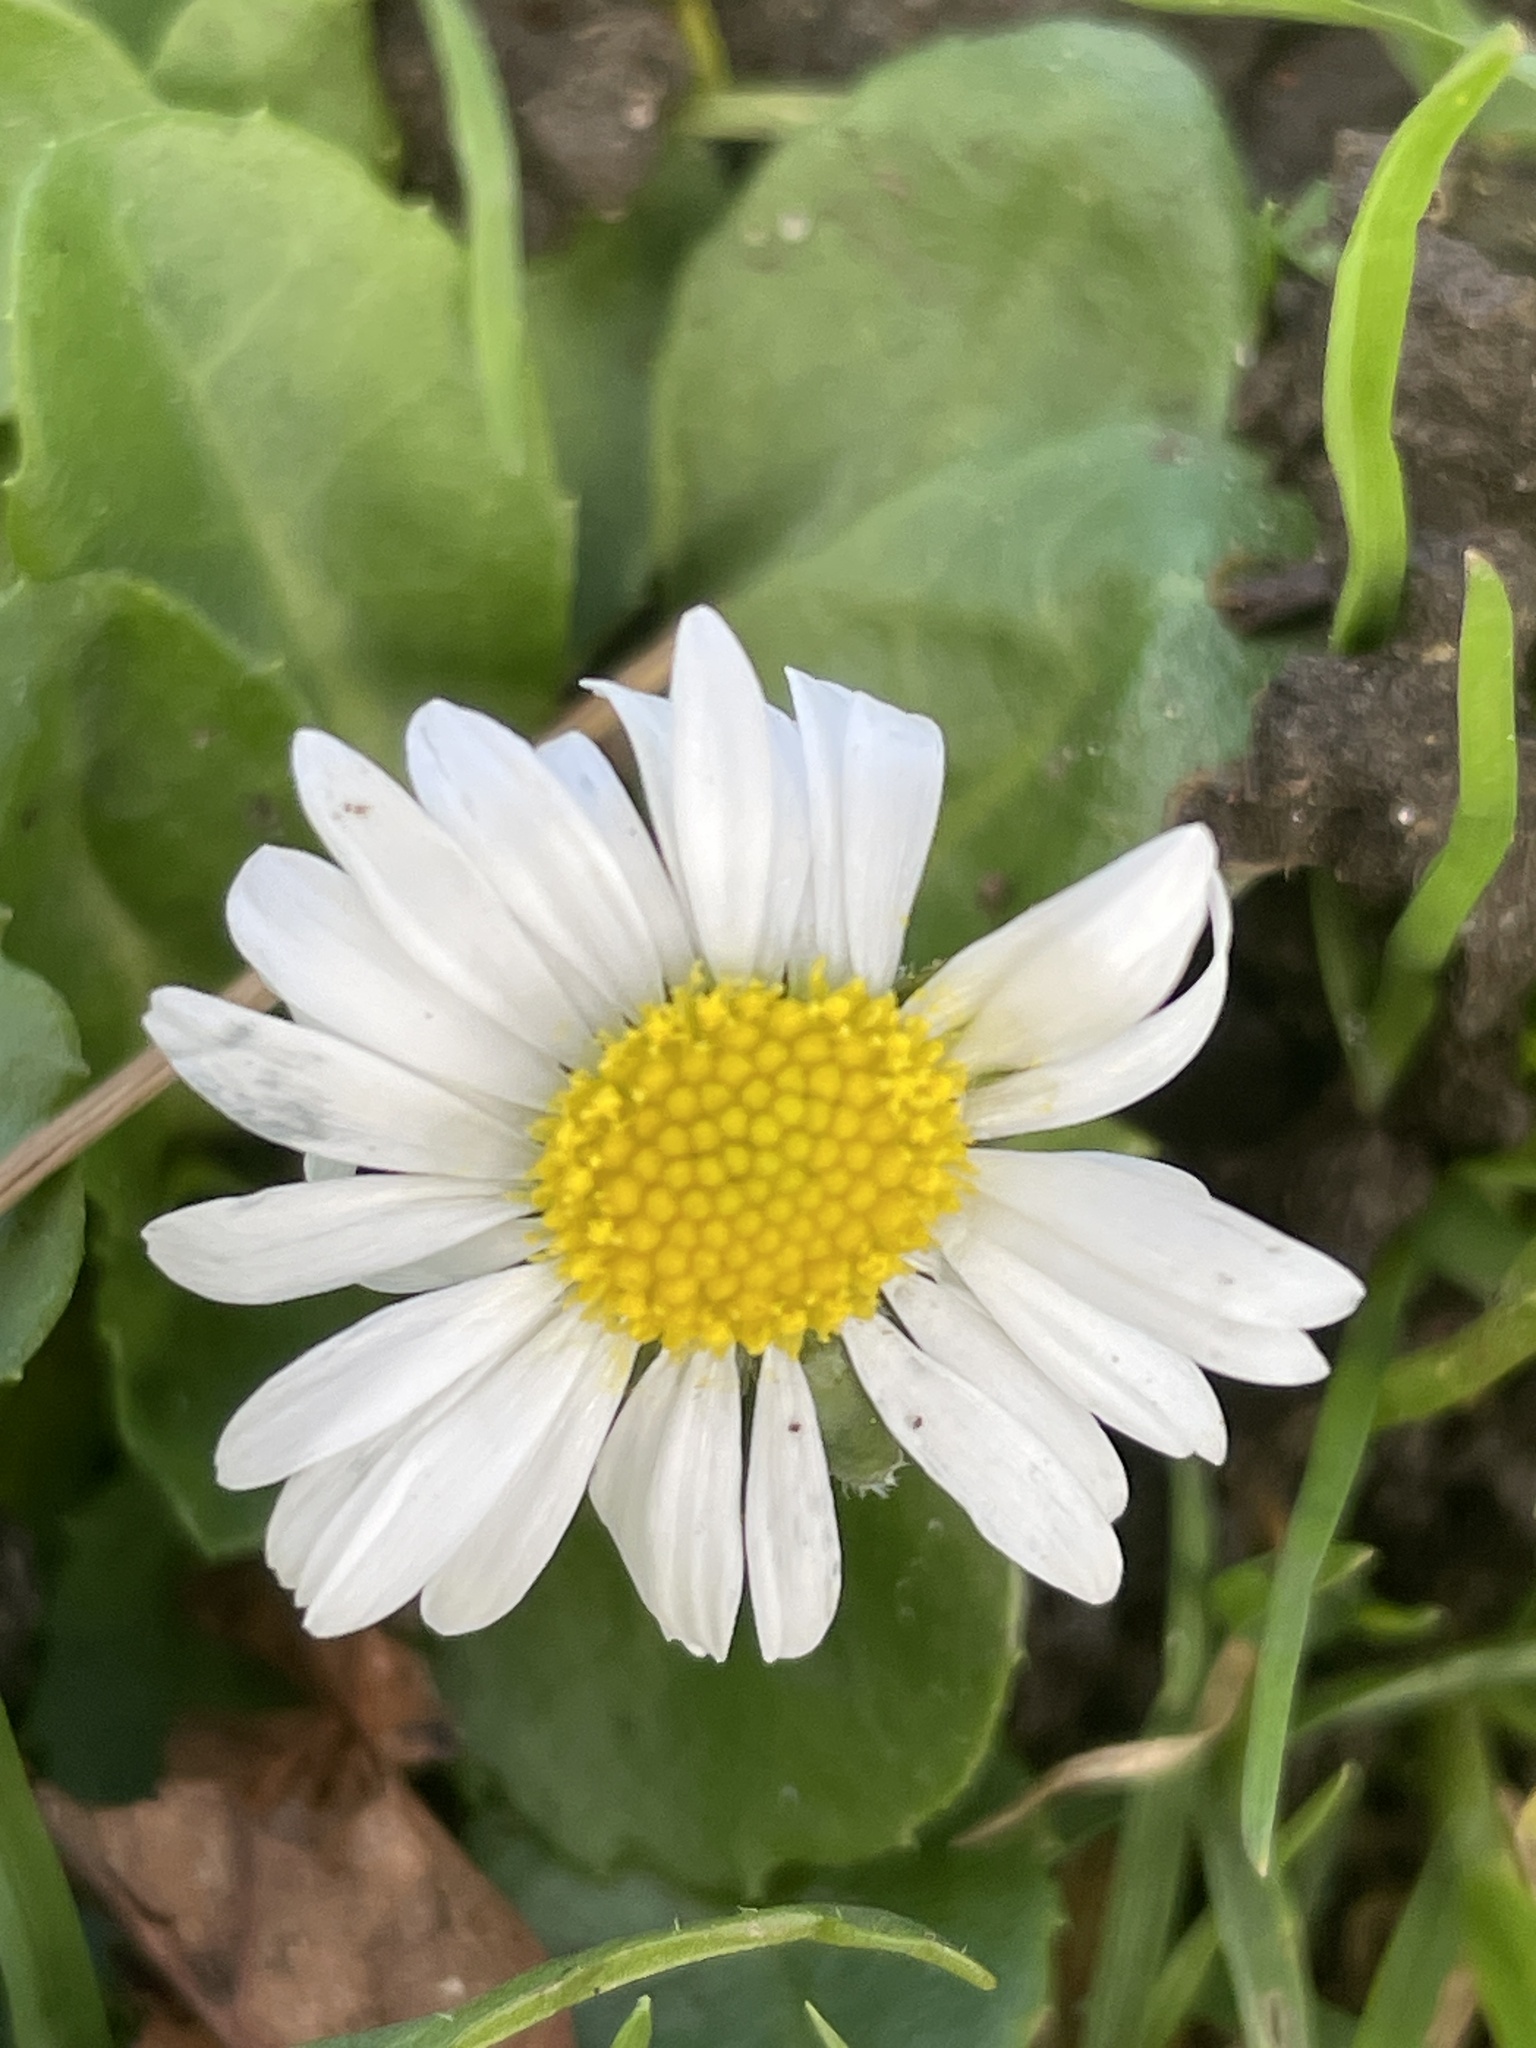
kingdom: Plantae
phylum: Tracheophyta
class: Magnoliopsida
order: Asterales
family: Asteraceae
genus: Bellis
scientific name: Bellis perennis
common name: Lawndaisy
